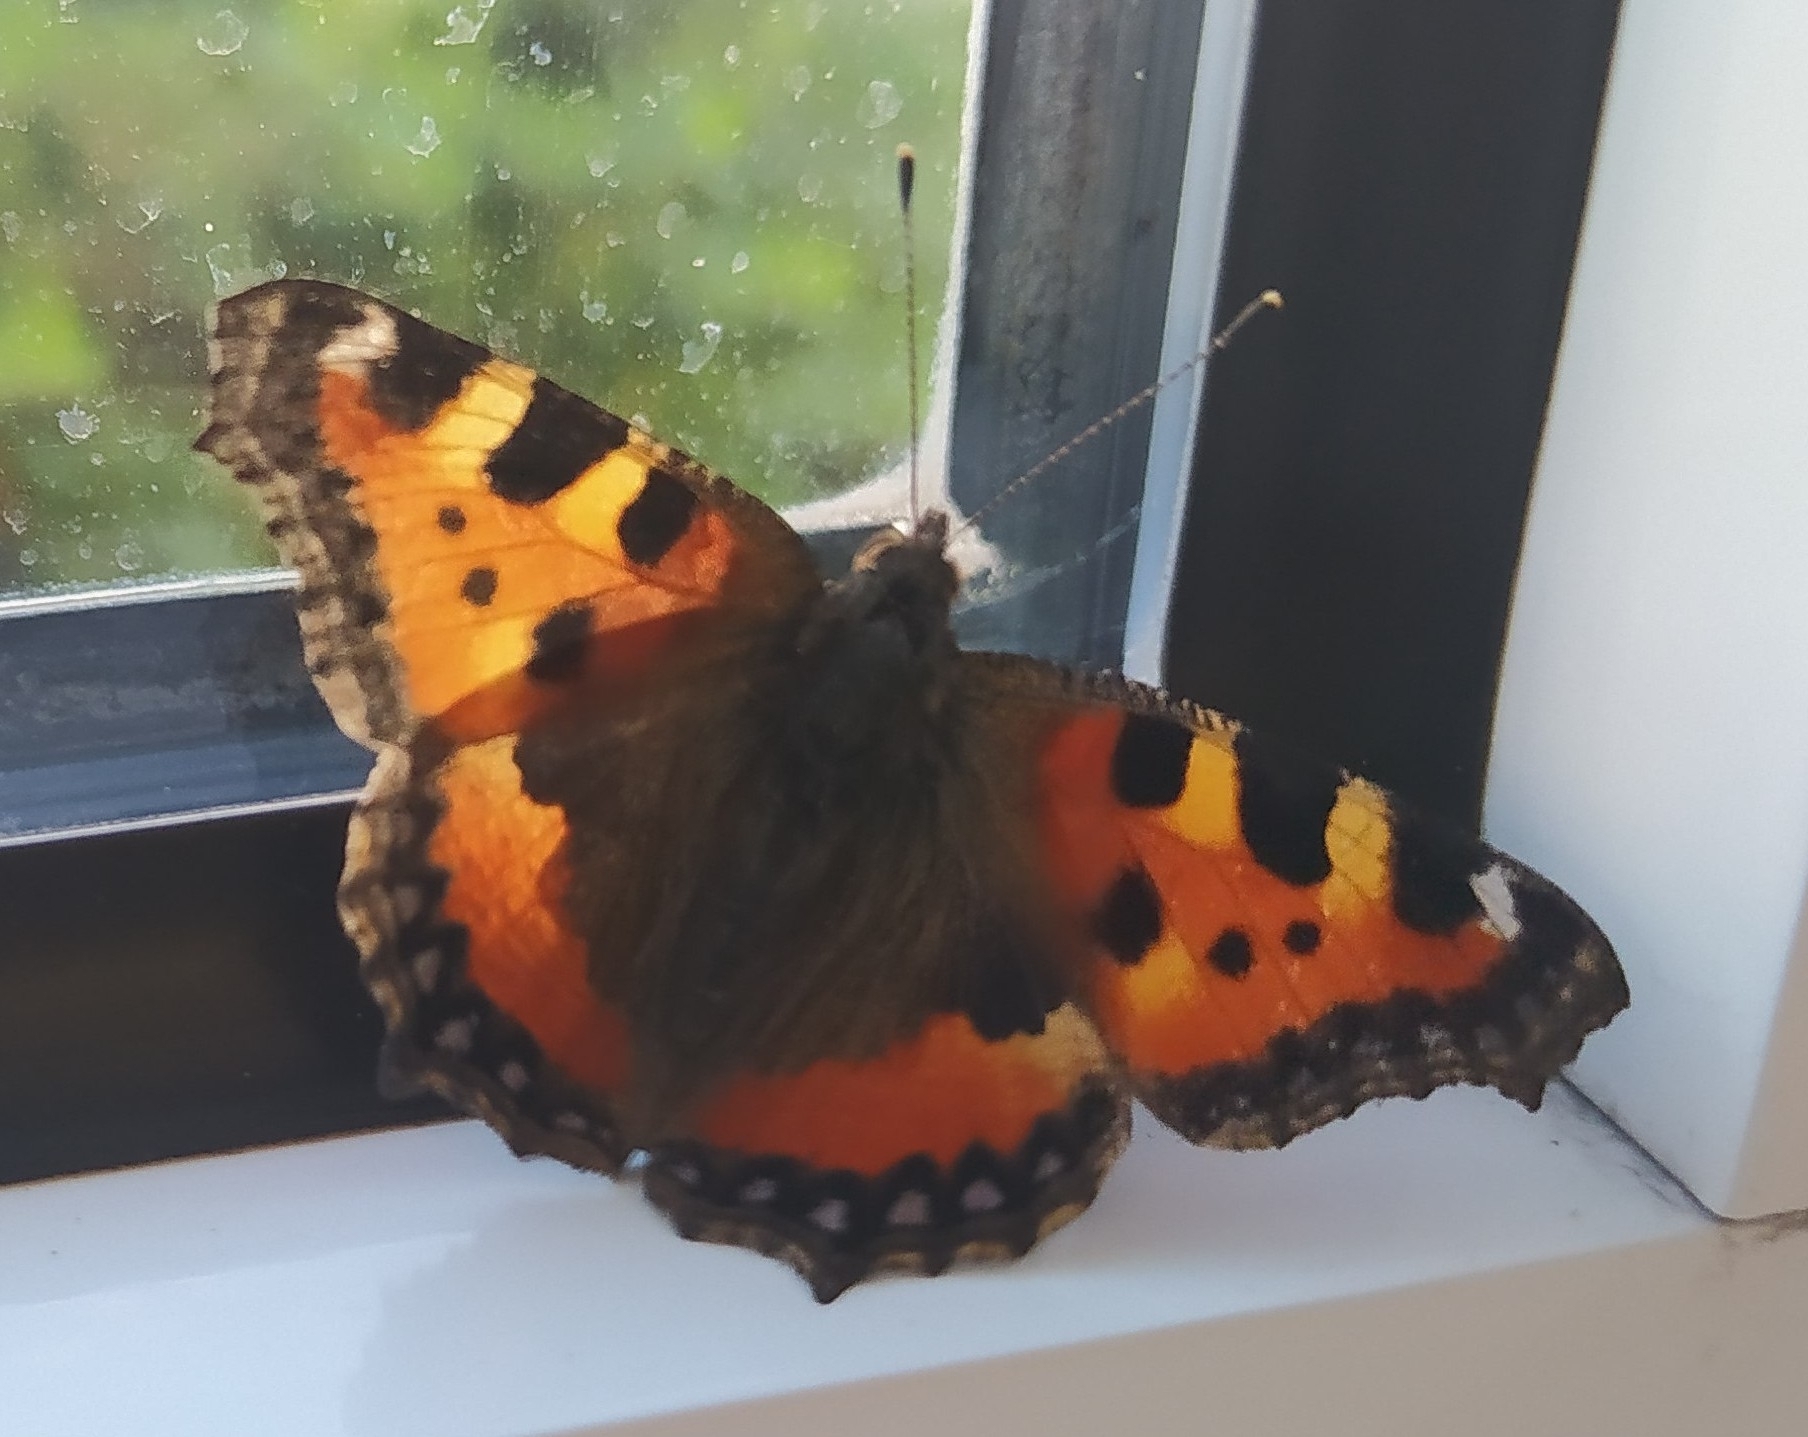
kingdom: Animalia
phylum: Arthropoda
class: Insecta
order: Lepidoptera
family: Nymphalidae
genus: Aglais
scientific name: Aglais urticae
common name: Small tortoiseshell
